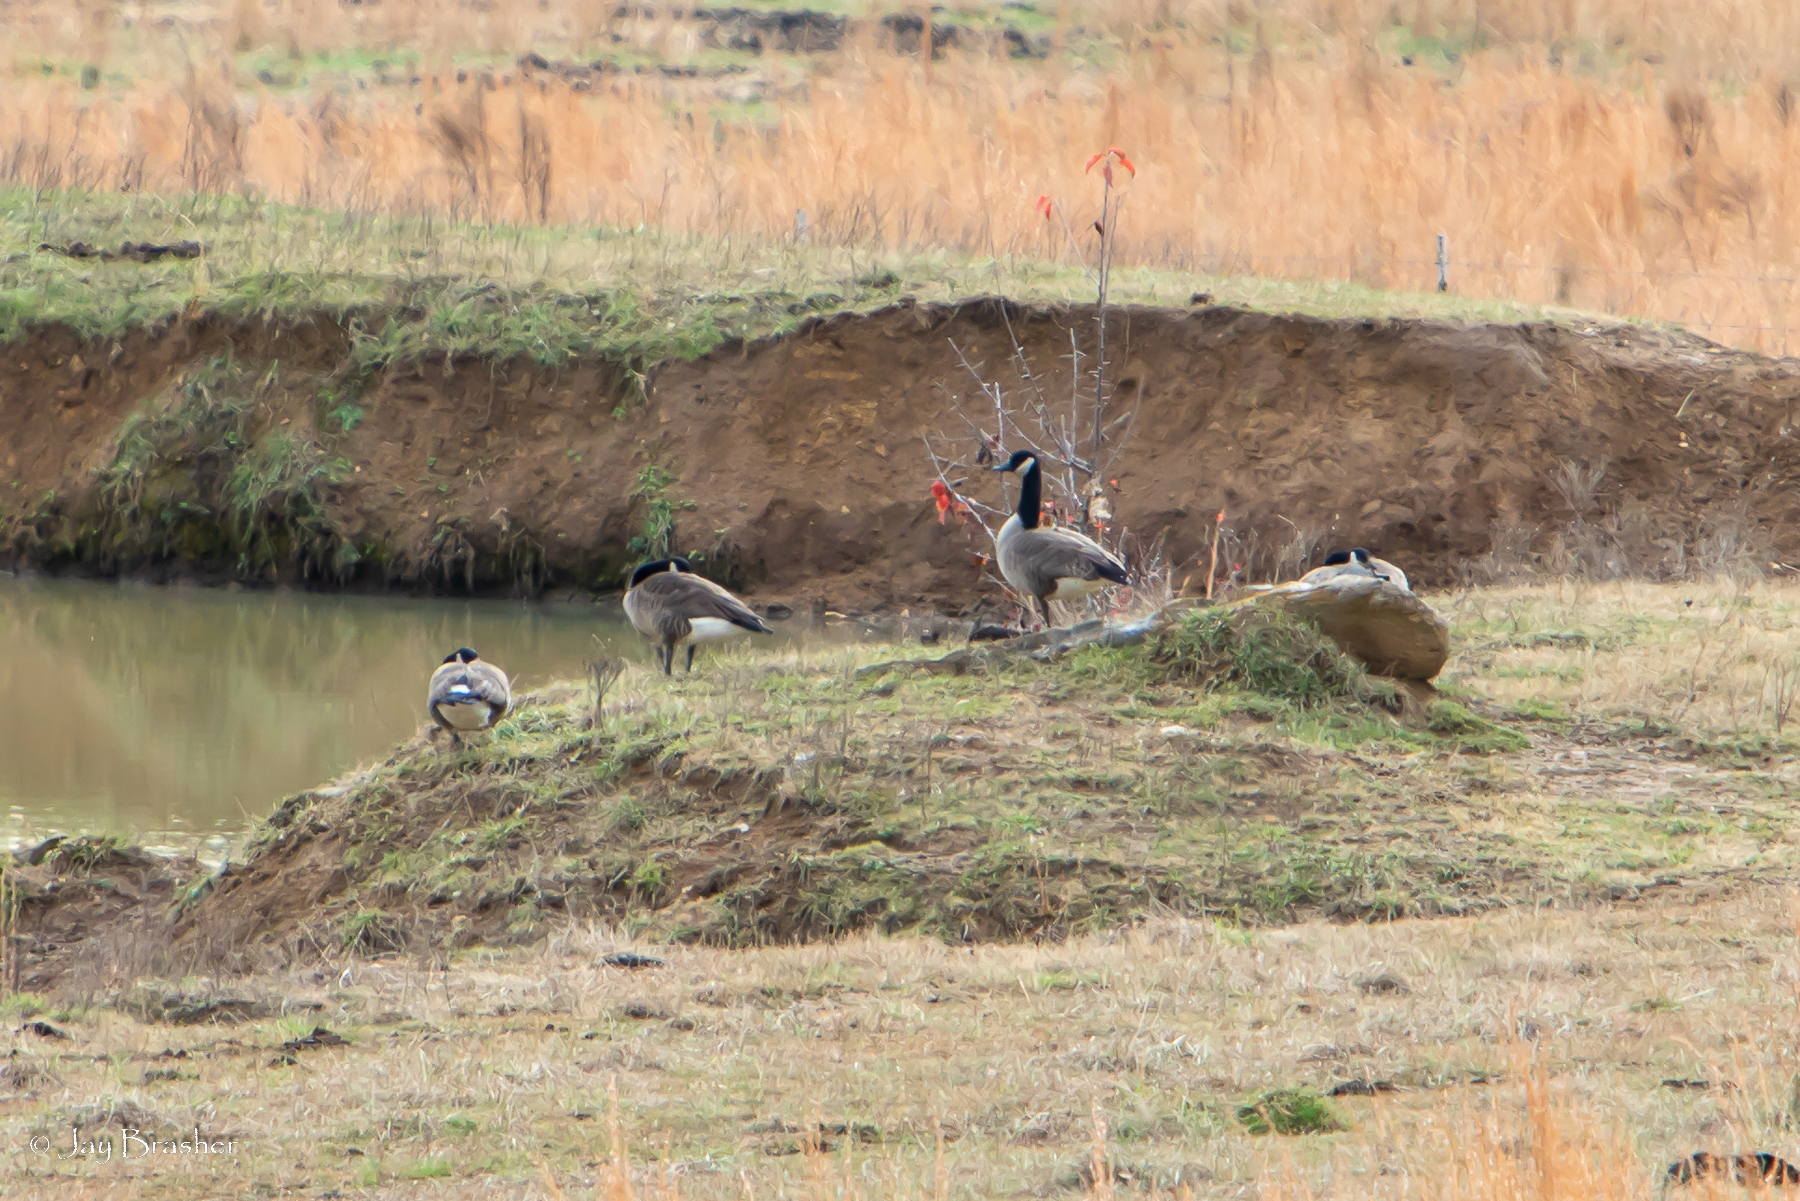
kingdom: Animalia
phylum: Chordata
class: Aves
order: Anseriformes
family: Anatidae
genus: Branta
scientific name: Branta canadensis
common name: Canada goose
